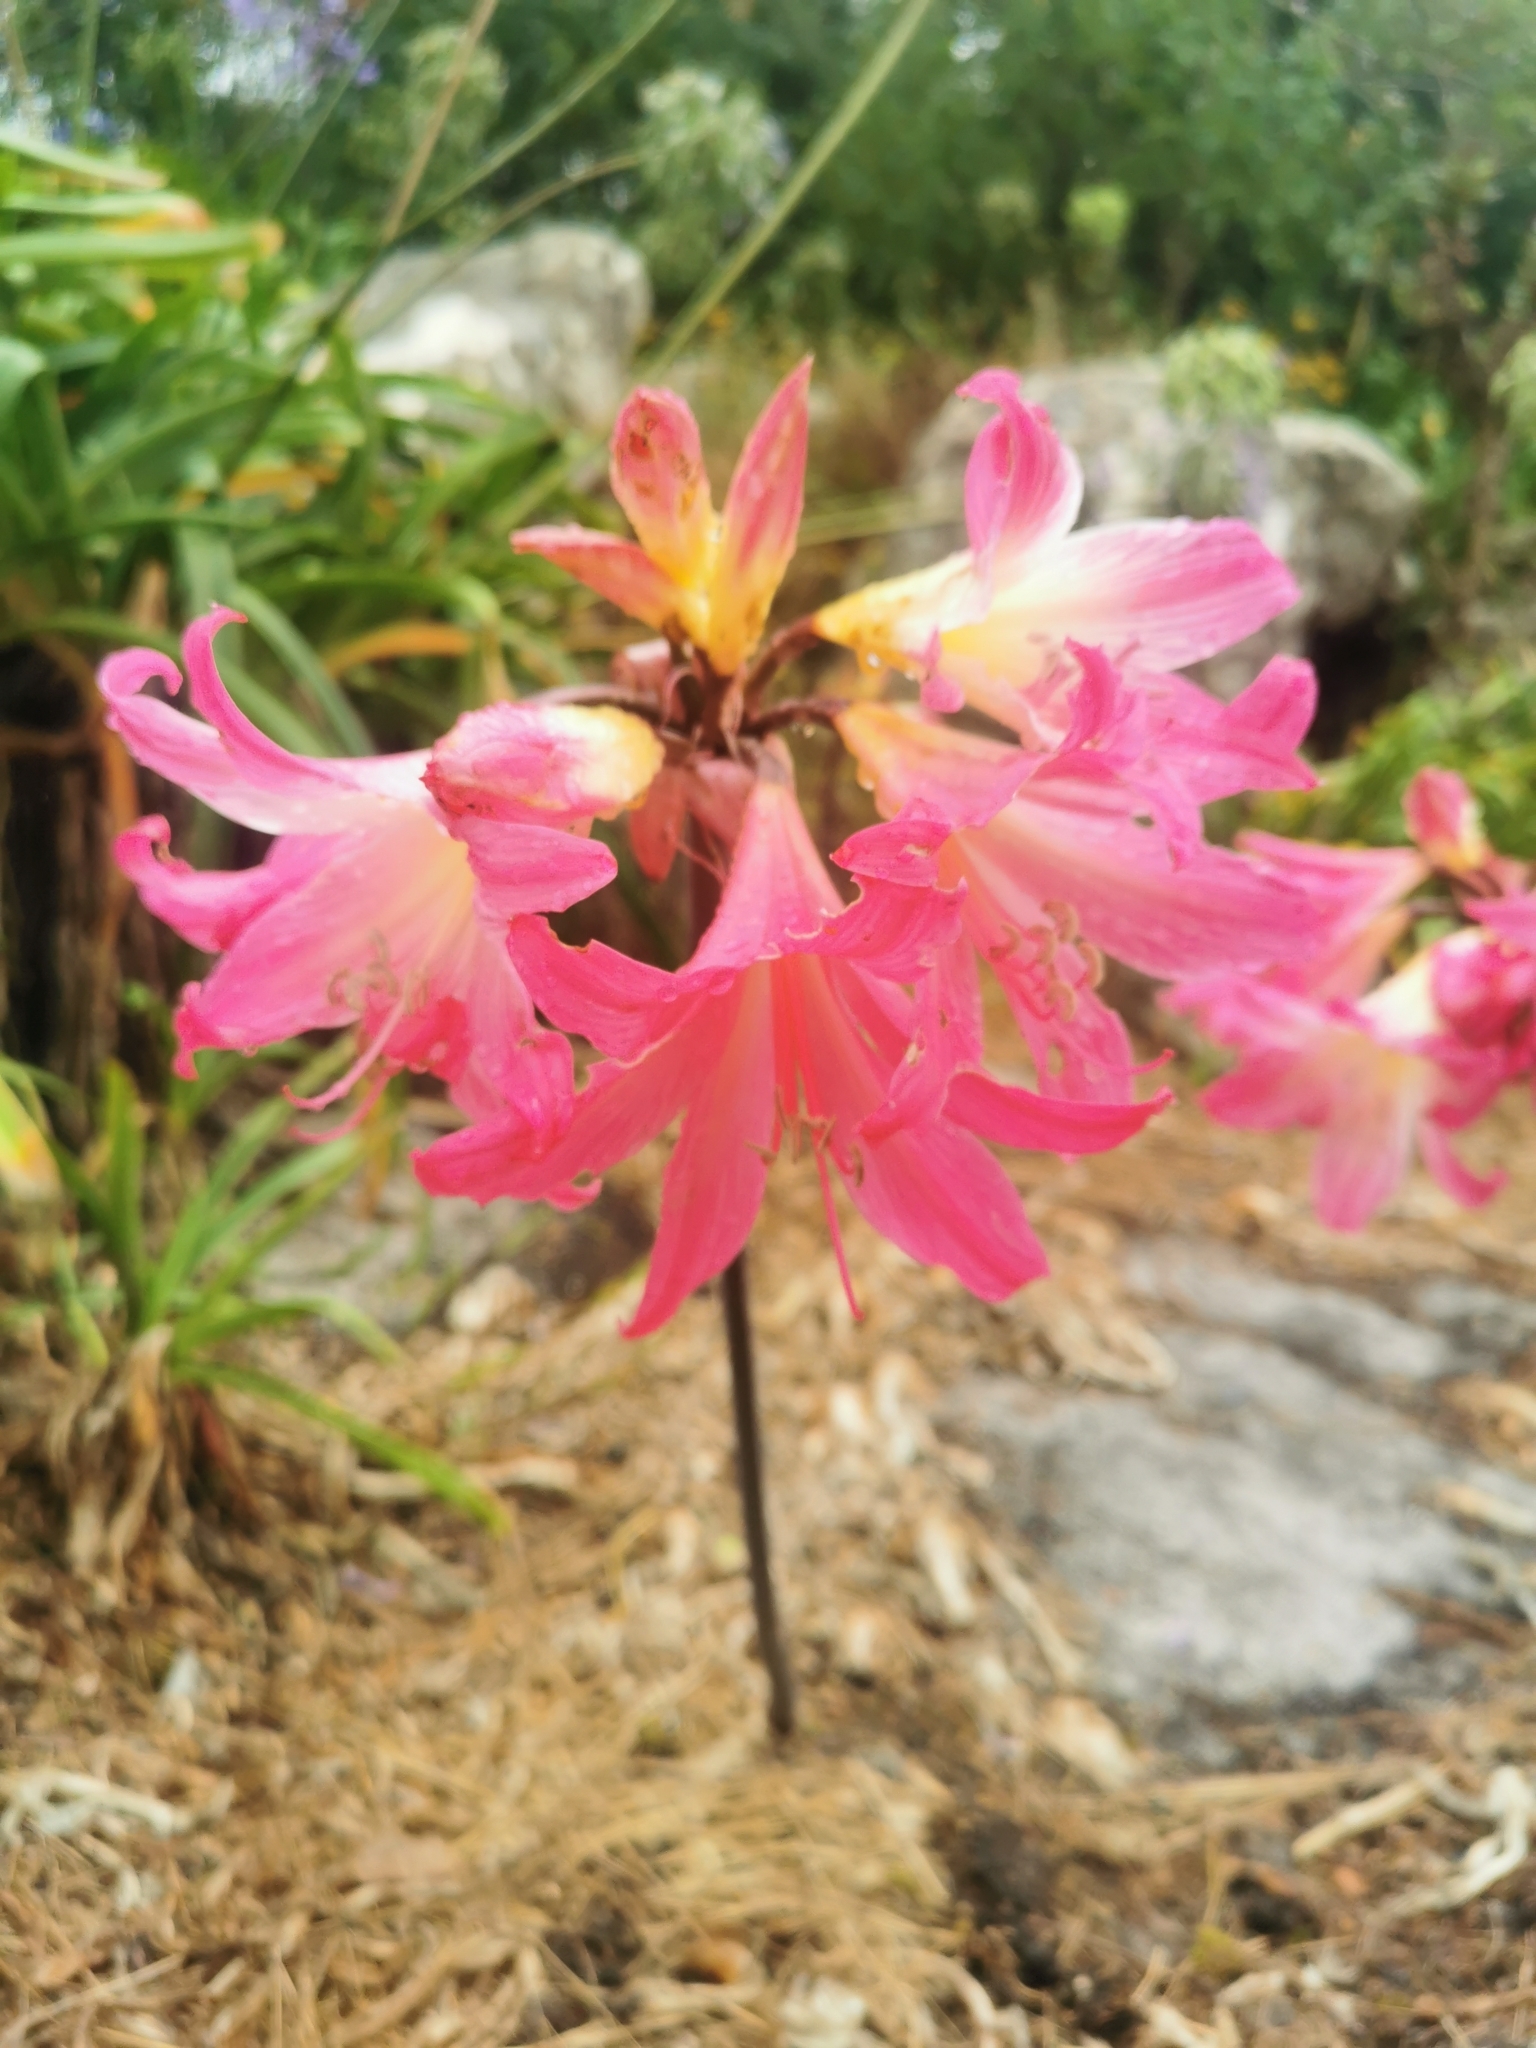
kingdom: Plantae
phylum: Tracheophyta
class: Liliopsida
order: Asparagales
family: Amaryllidaceae
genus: Amaryllis
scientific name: Amaryllis belladonna
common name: Jersey lily
